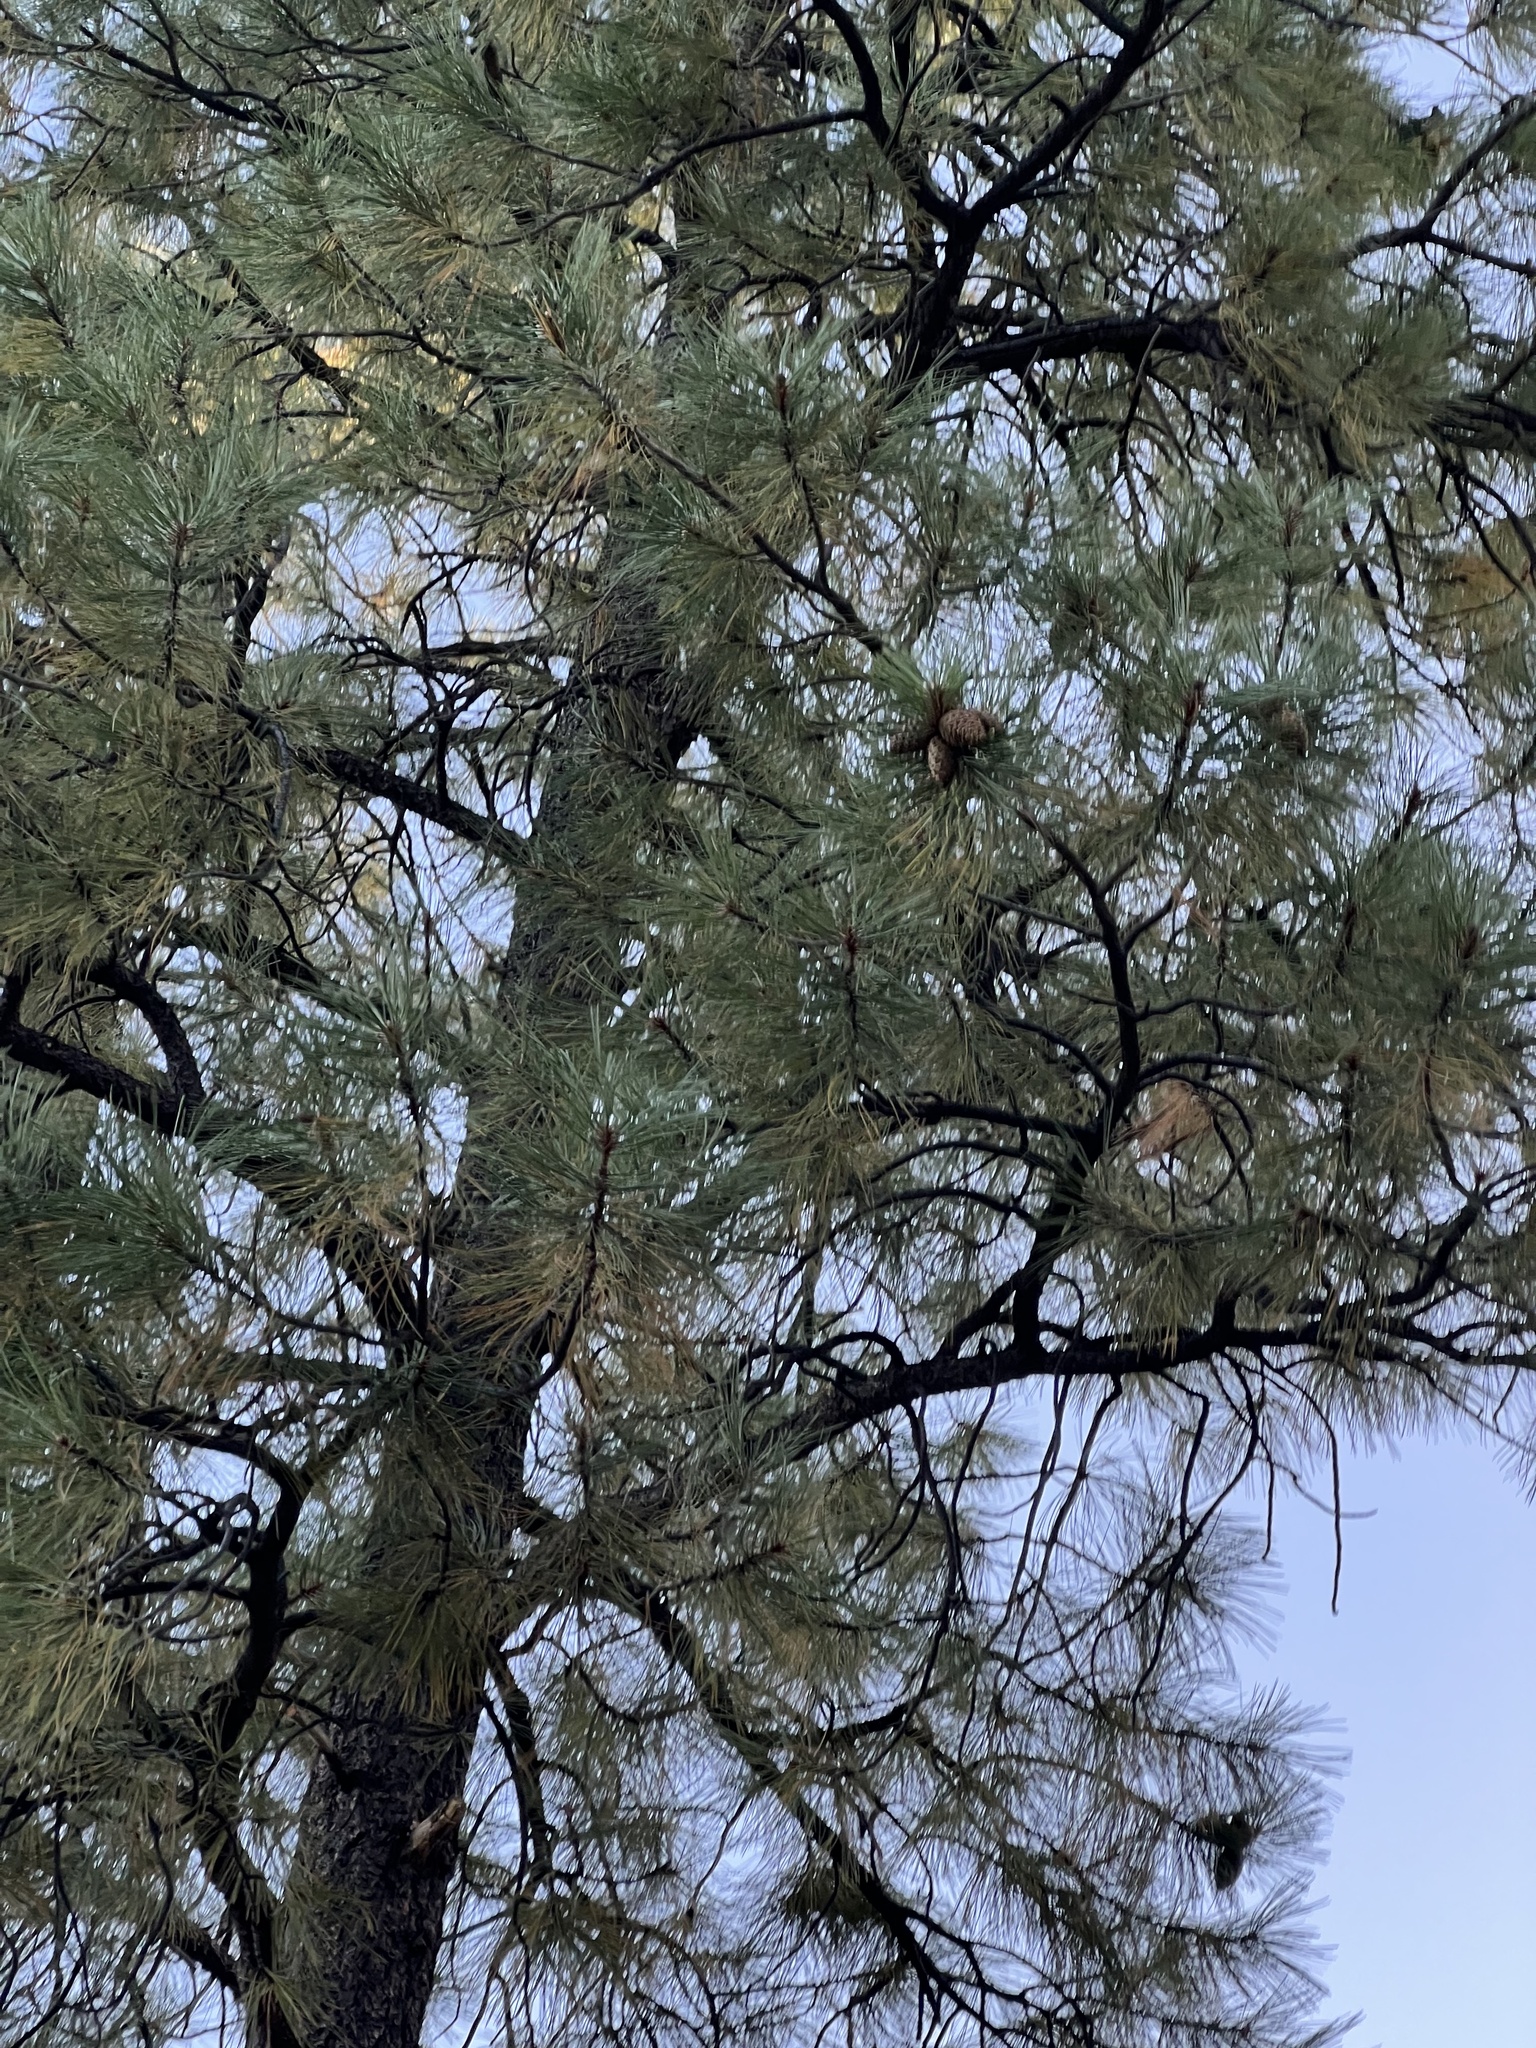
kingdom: Plantae
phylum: Tracheophyta
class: Pinopsida
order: Pinales
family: Pinaceae
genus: Pinus
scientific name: Pinus ponderosa
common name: Western yellow-pine
